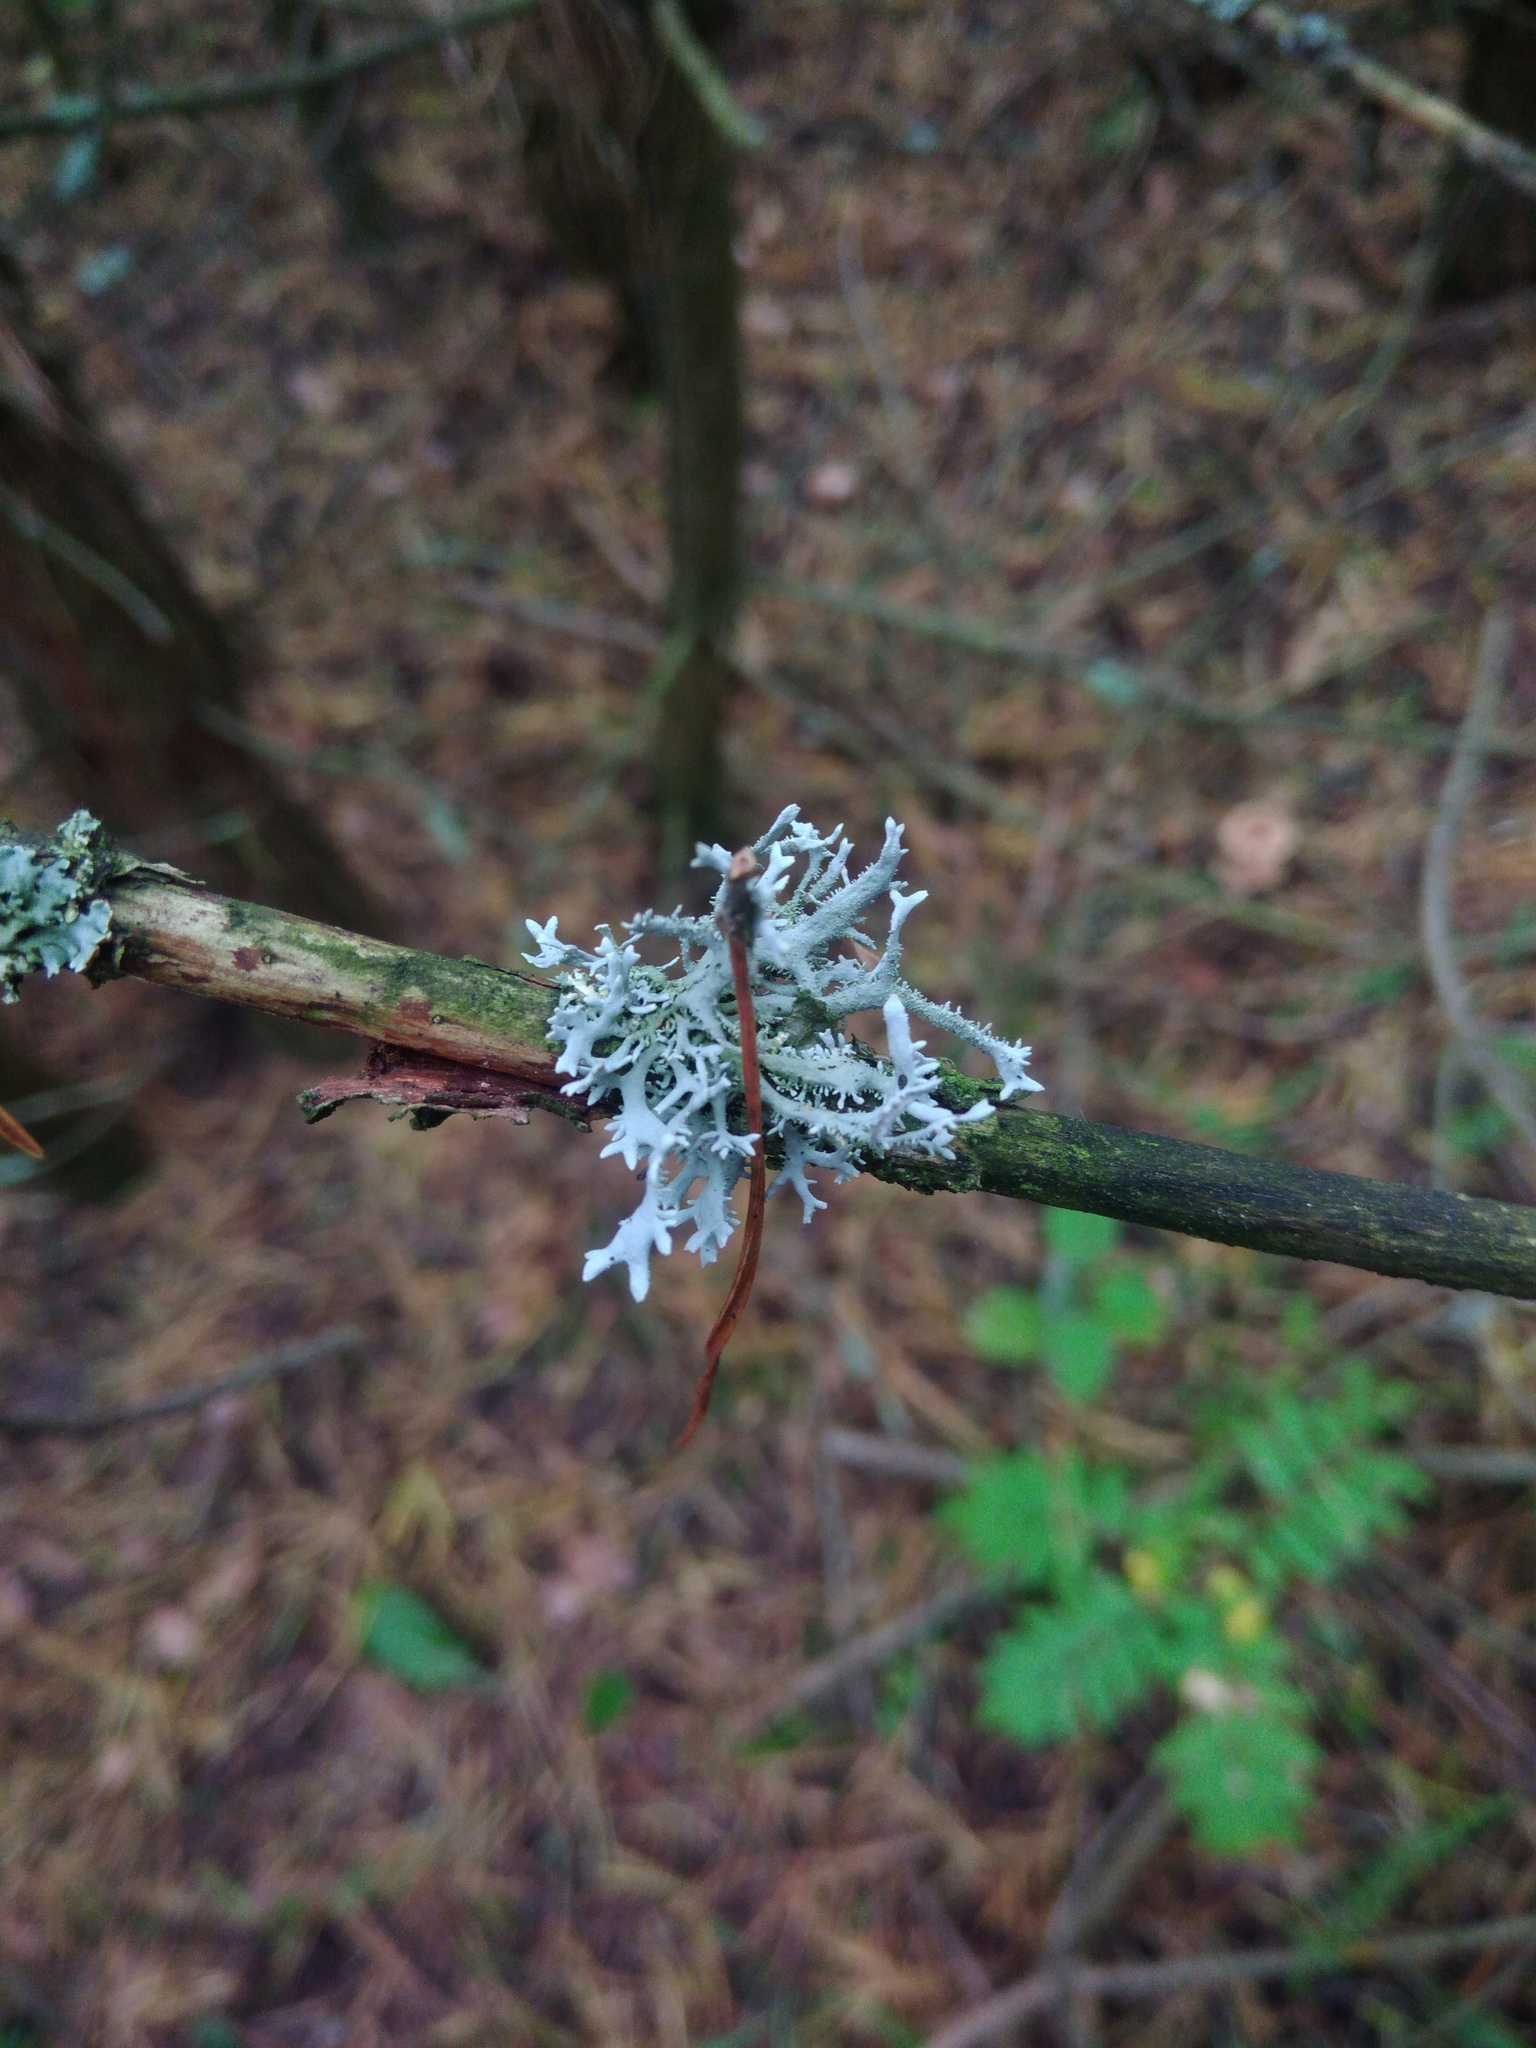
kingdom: Fungi
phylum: Ascomycota
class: Lecanoromycetes
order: Lecanorales
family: Parmeliaceae
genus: Pseudevernia
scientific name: Pseudevernia furfuracea
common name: Tree moss
